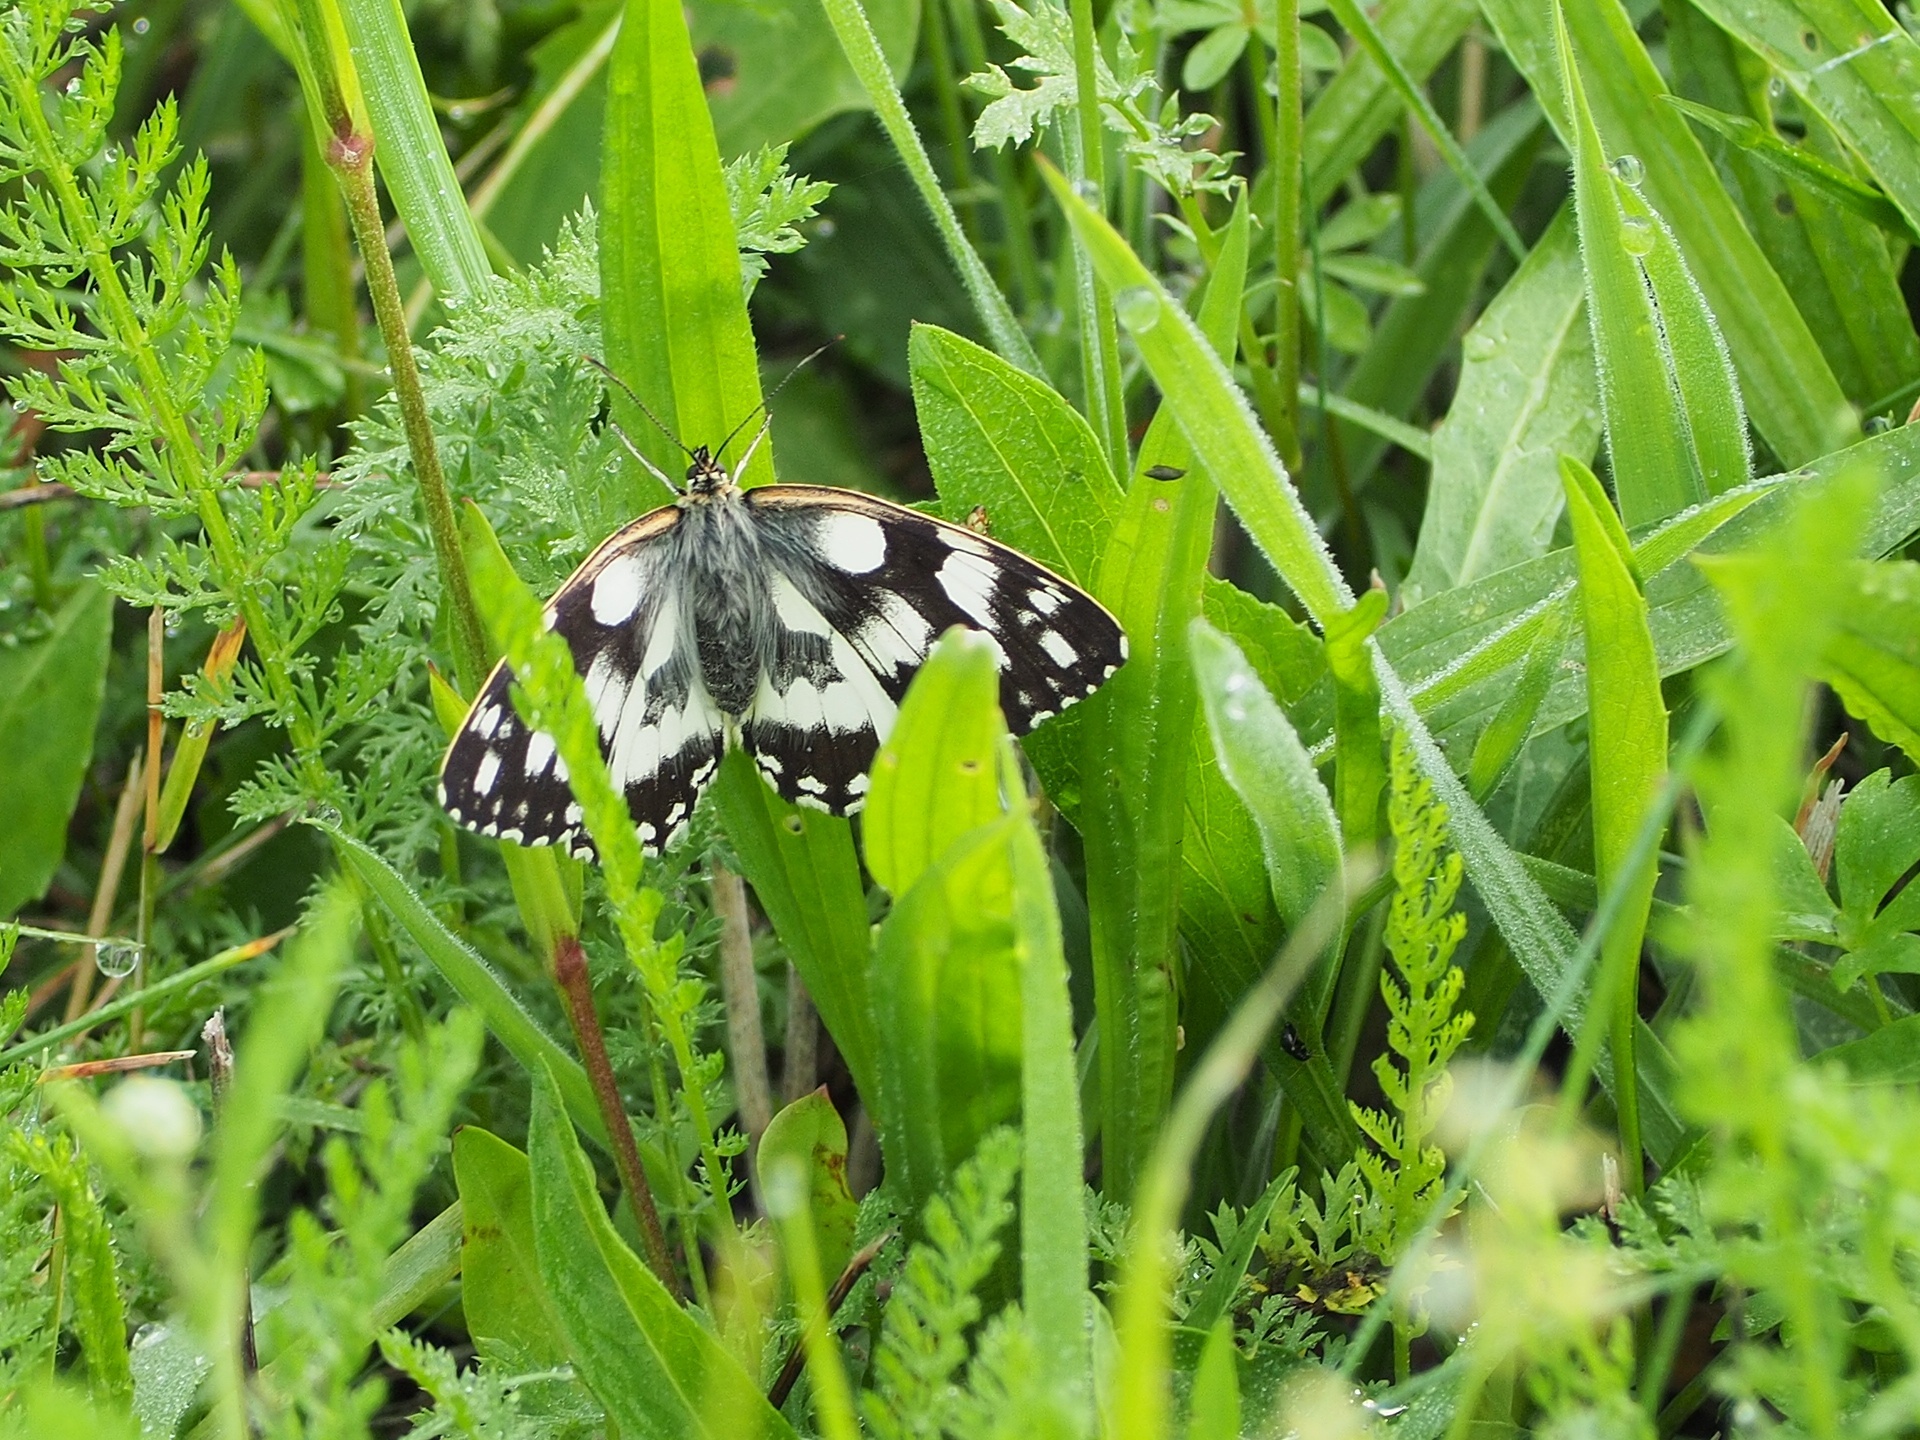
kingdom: Animalia
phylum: Arthropoda
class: Insecta
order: Lepidoptera
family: Nymphalidae
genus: Melanargia
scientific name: Melanargia galathea
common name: Marbled white
